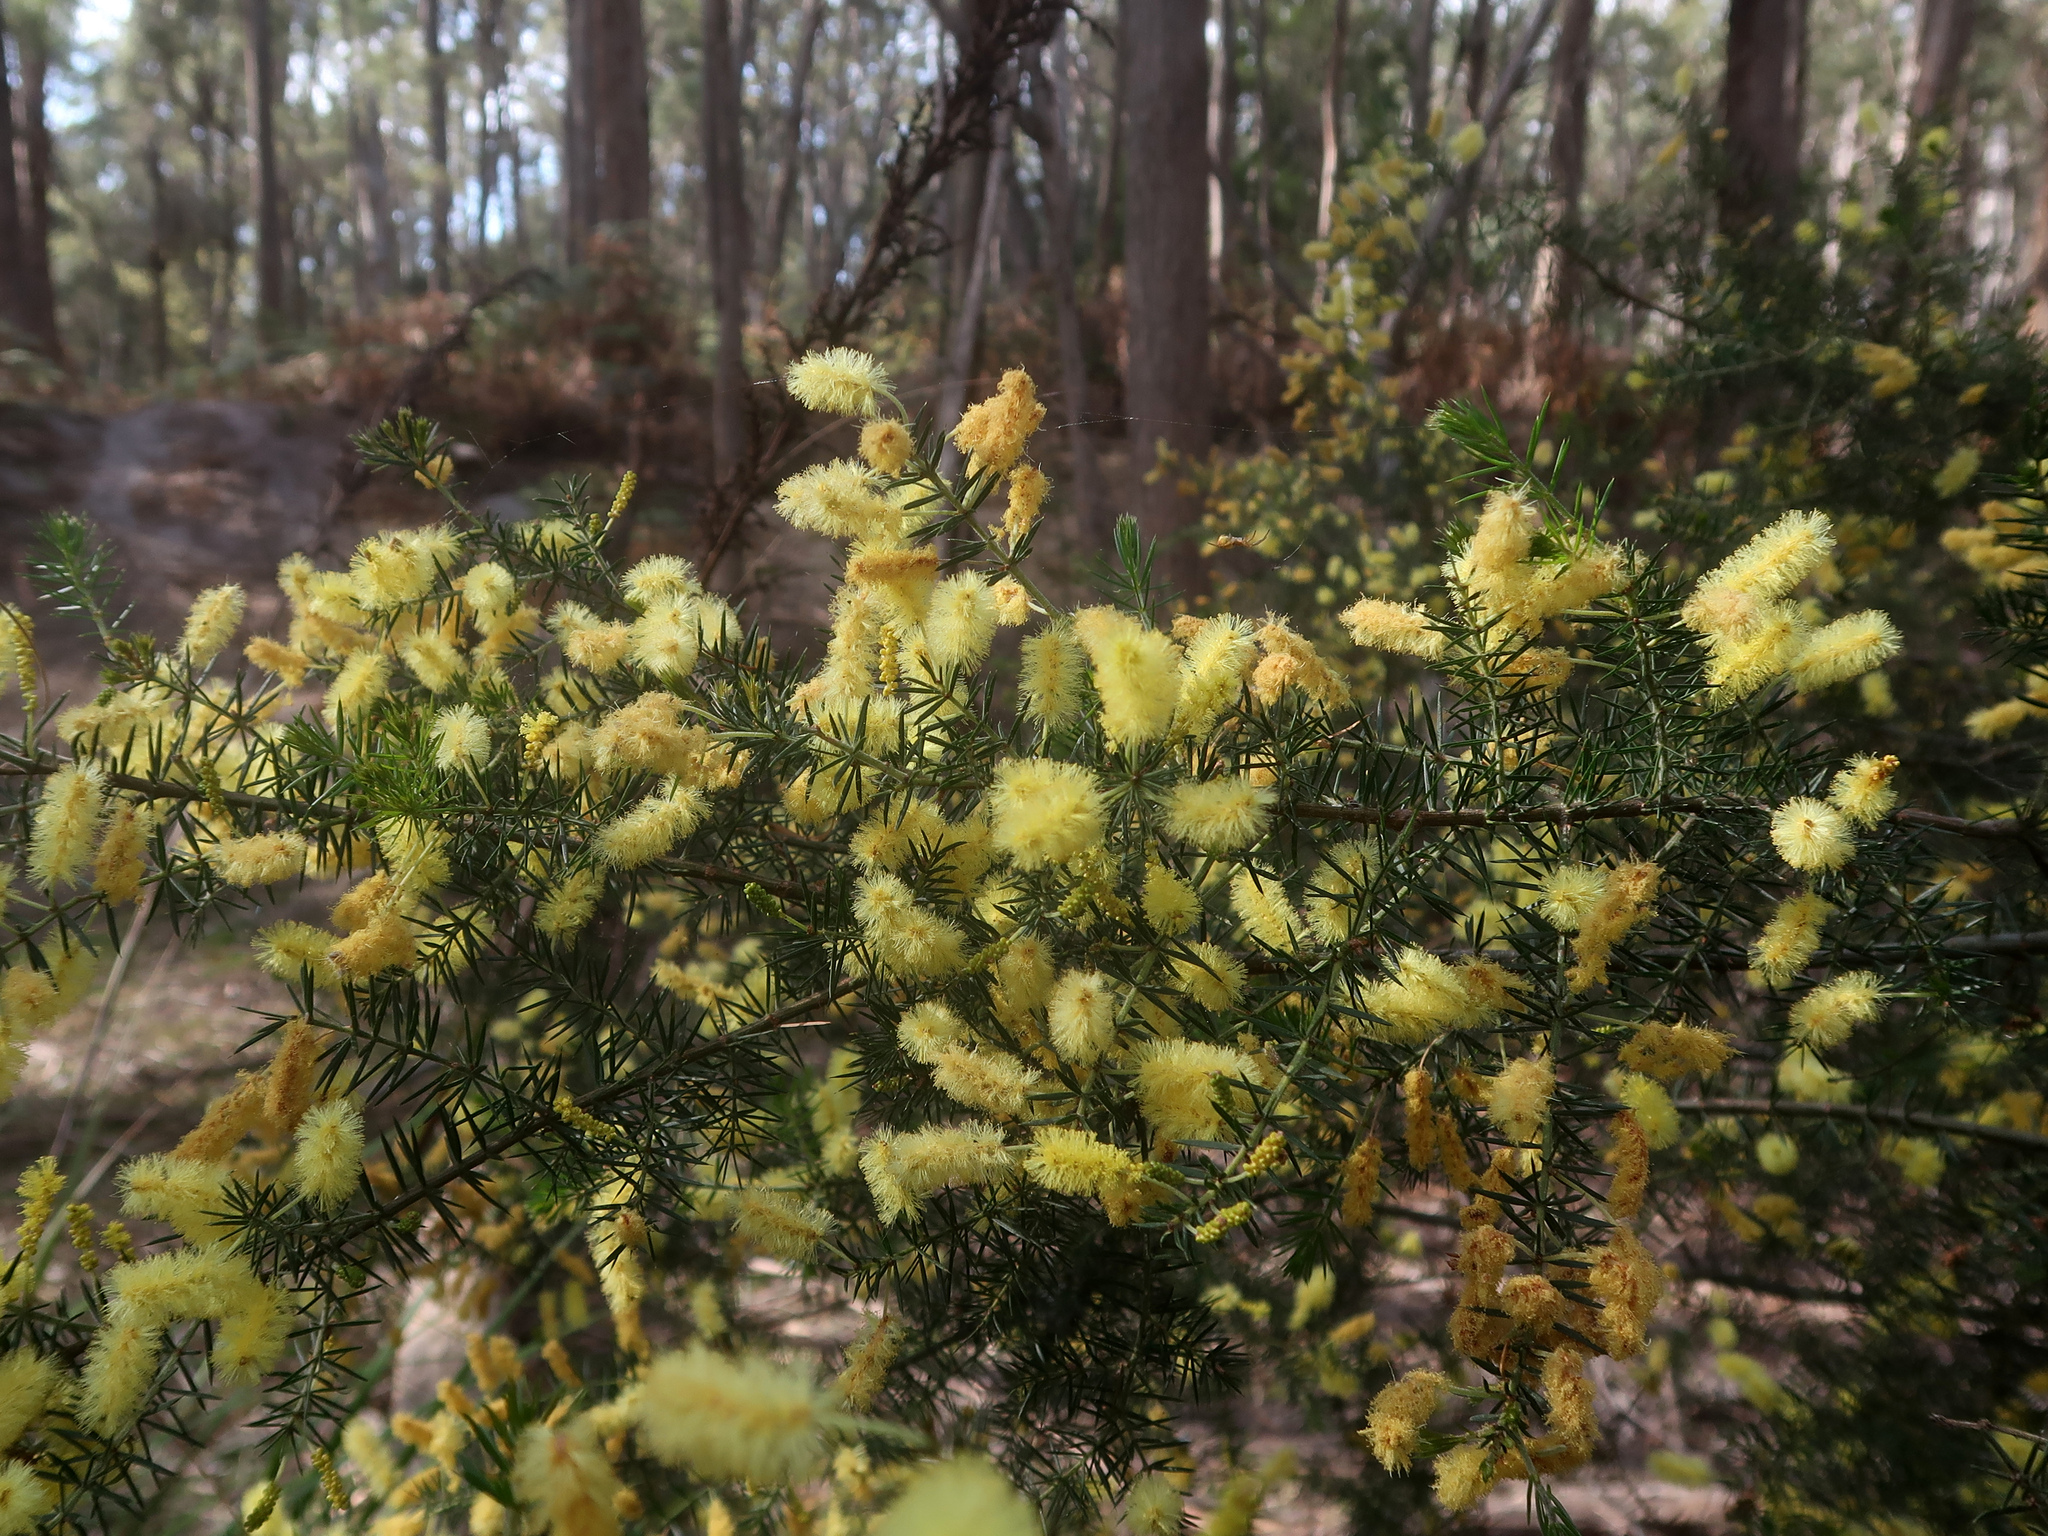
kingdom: Plantae
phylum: Tracheophyta
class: Magnoliopsida
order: Fabales
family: Fabaceae
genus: Acacia
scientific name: Acacia verticillata
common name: Prickly moses
